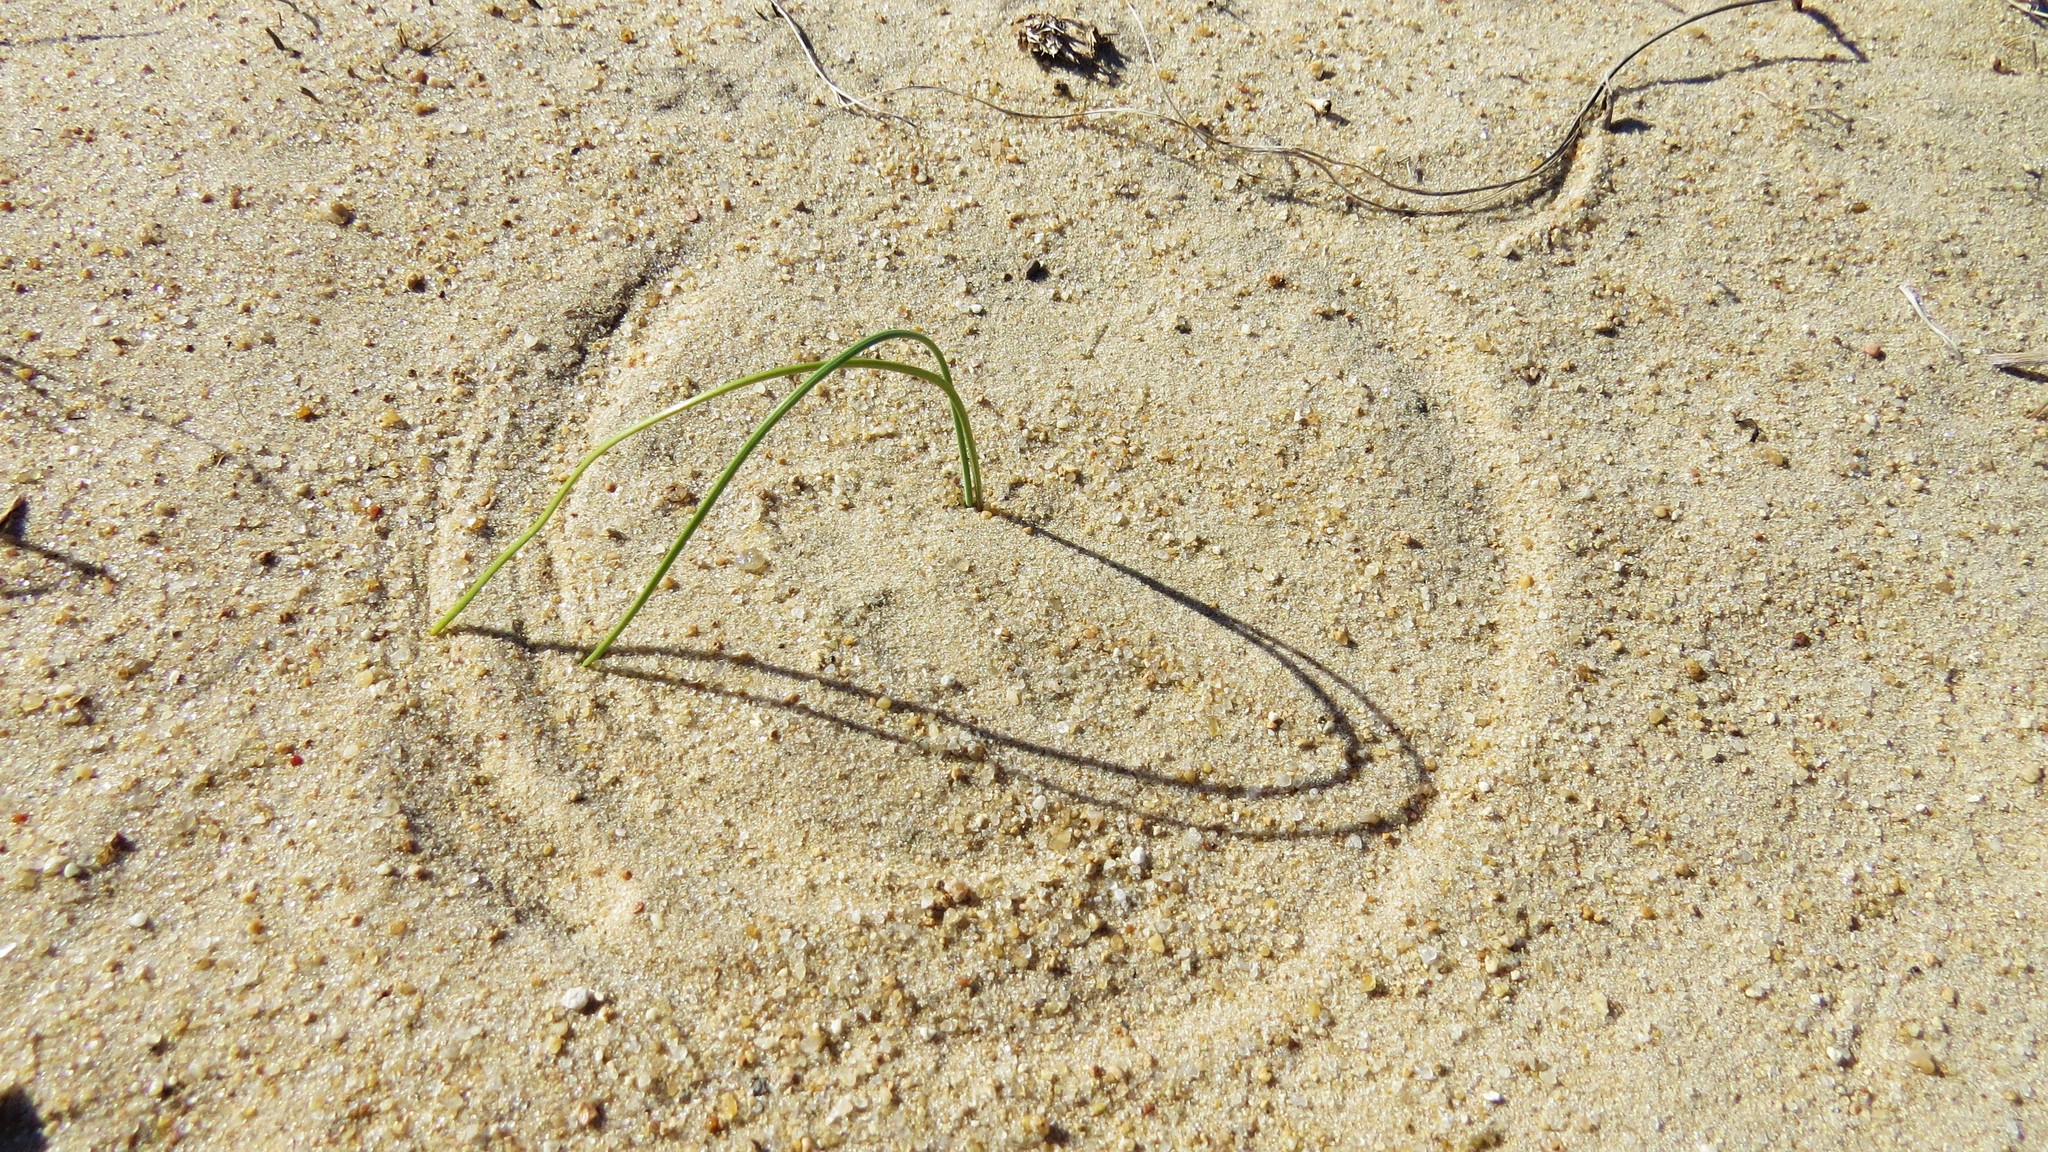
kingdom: Plantae
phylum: Tracheophyta
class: Liliopsida
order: Poales
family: Poaceae
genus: Panicum
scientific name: Panicum racemosum
